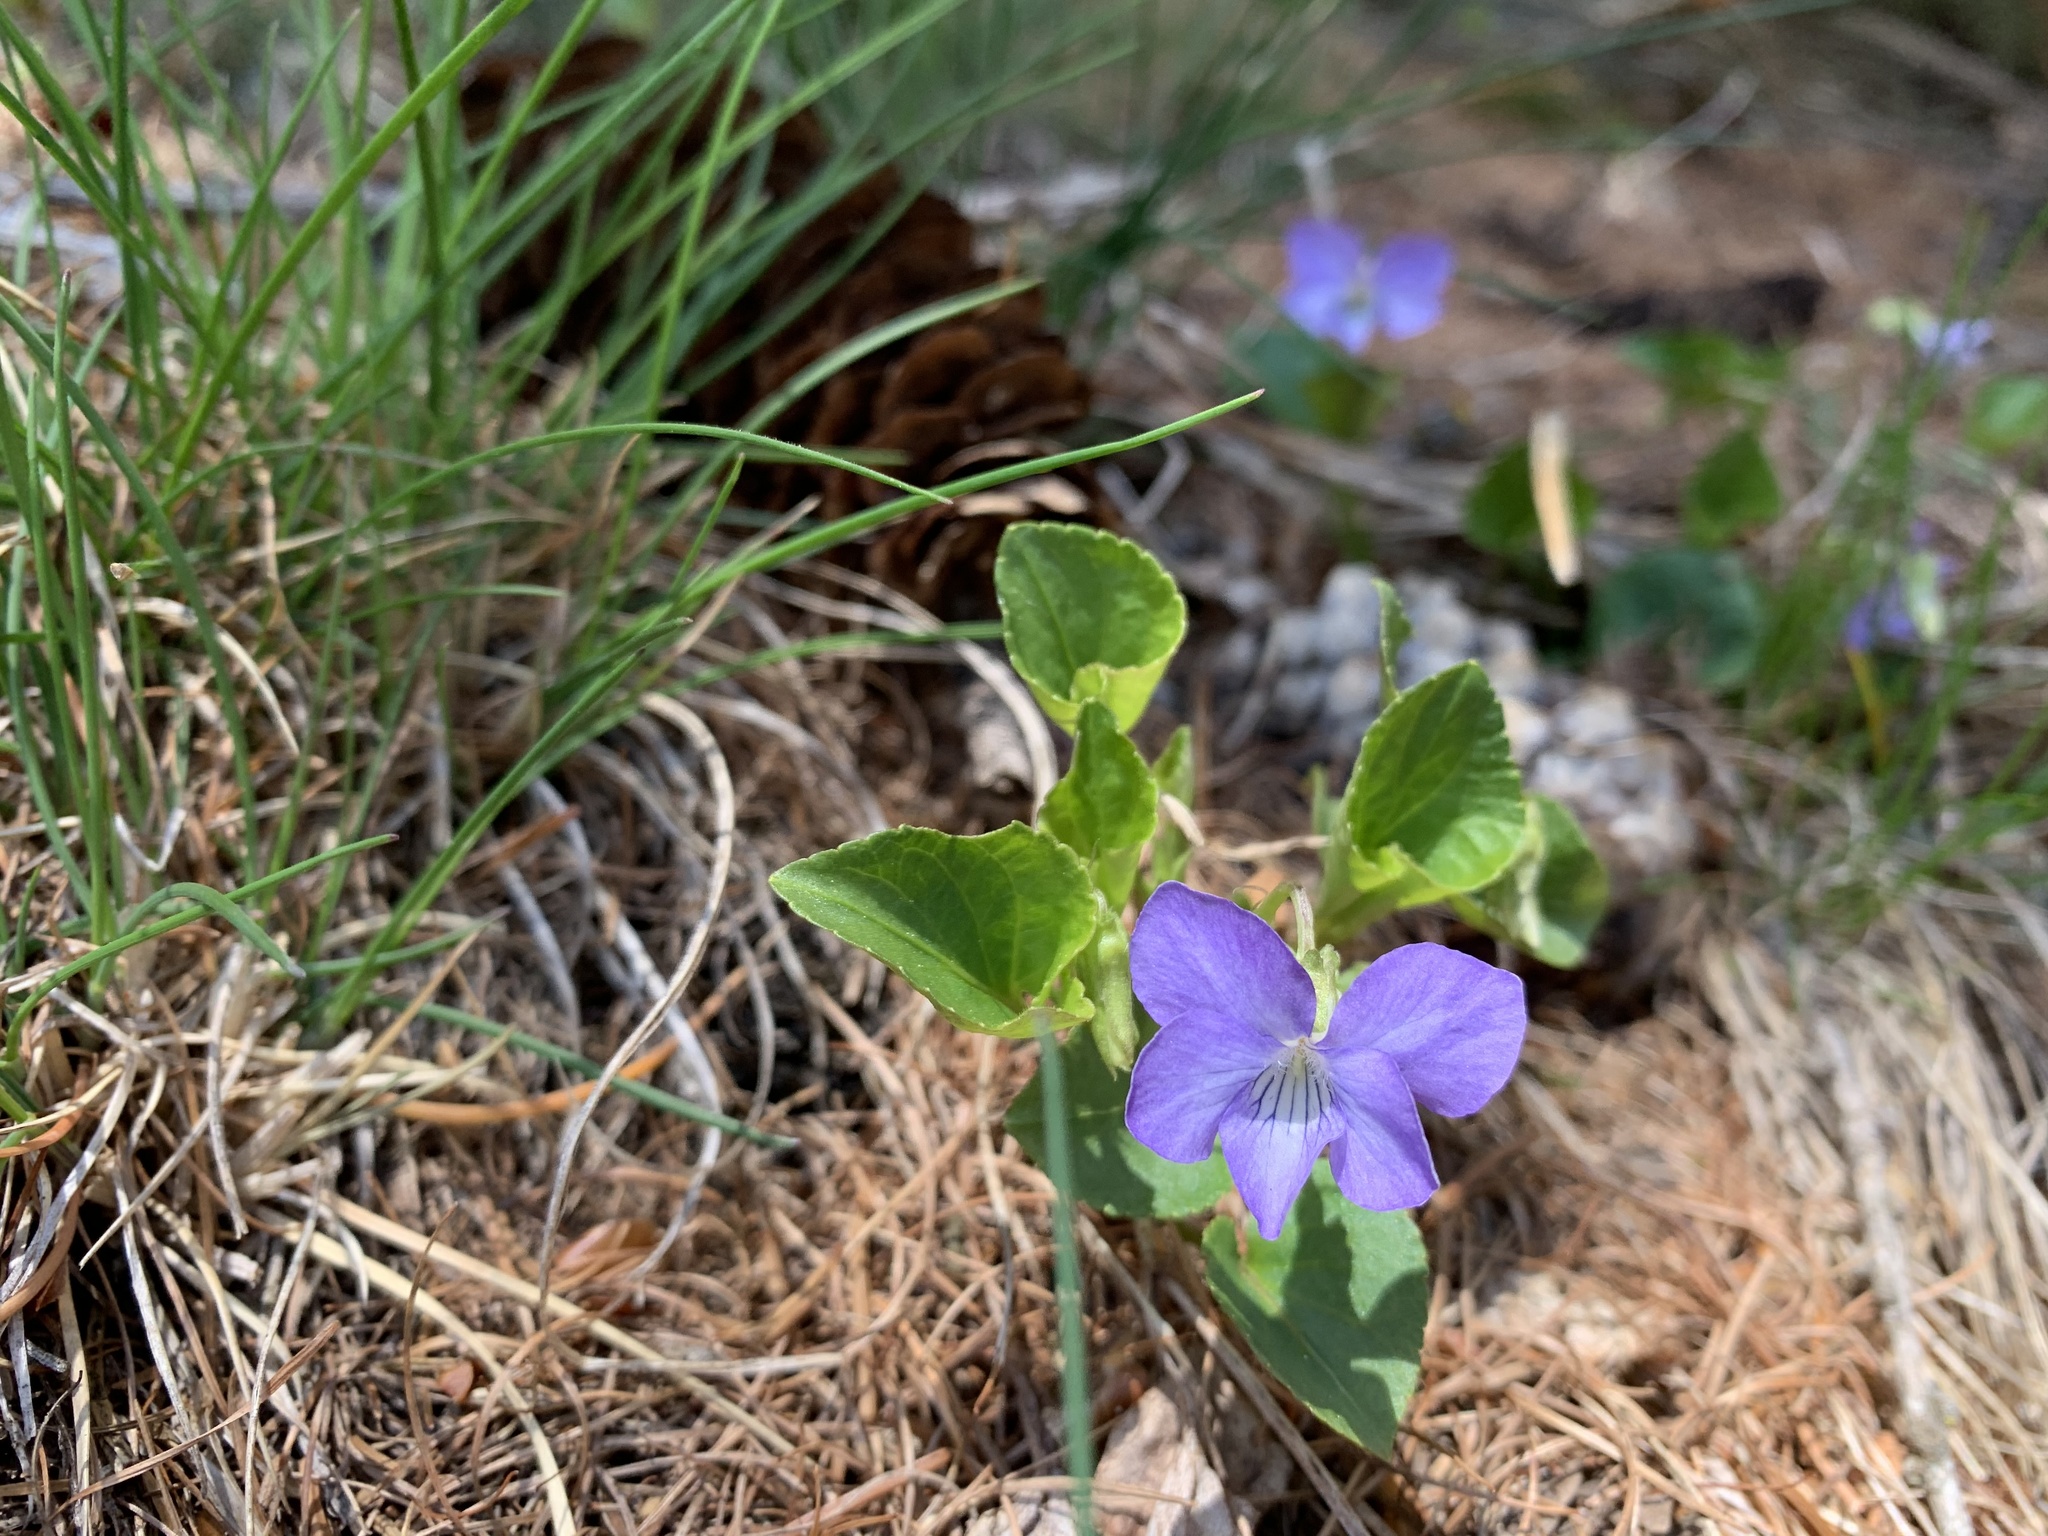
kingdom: Plantae
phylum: Tracheophyta
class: Magnoliopsida
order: Malpighiales
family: Violaceae
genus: Viola
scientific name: Viola mirabilis
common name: Wonder violet
